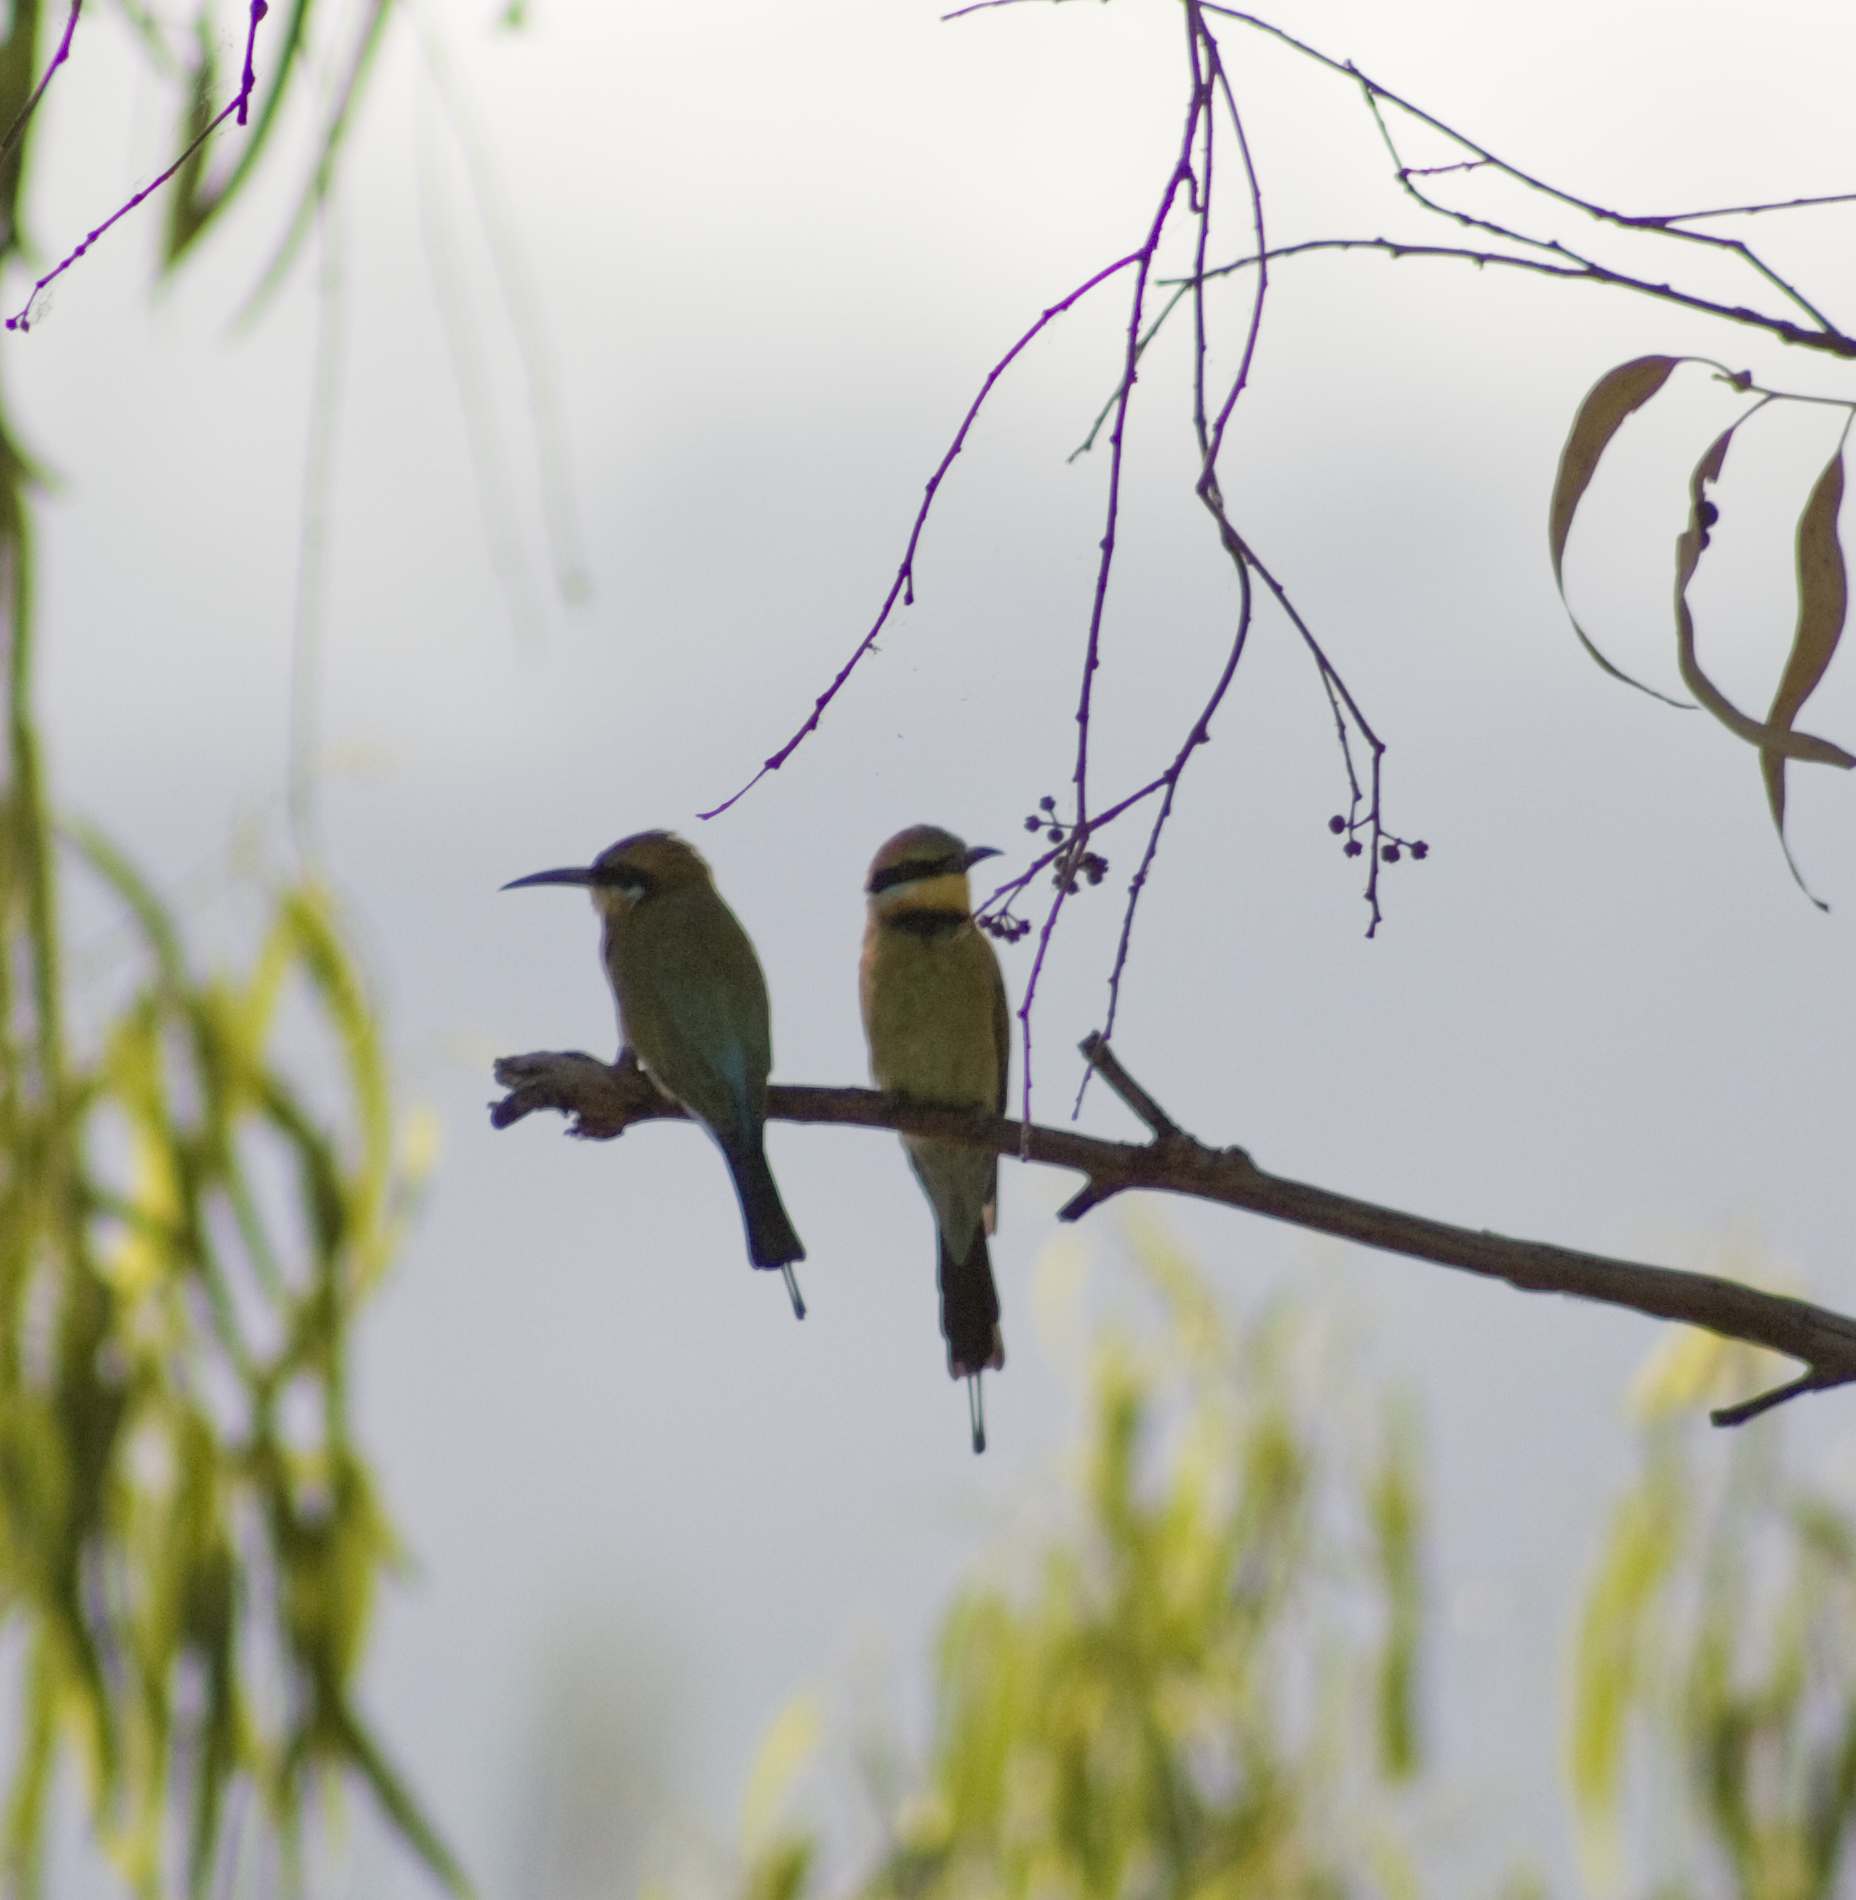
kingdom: Animalia
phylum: Chordata
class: Aves
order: Coraciiformes
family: Meropidae
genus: Merops
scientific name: Merops ornatus
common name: Rainbow bee-eater
